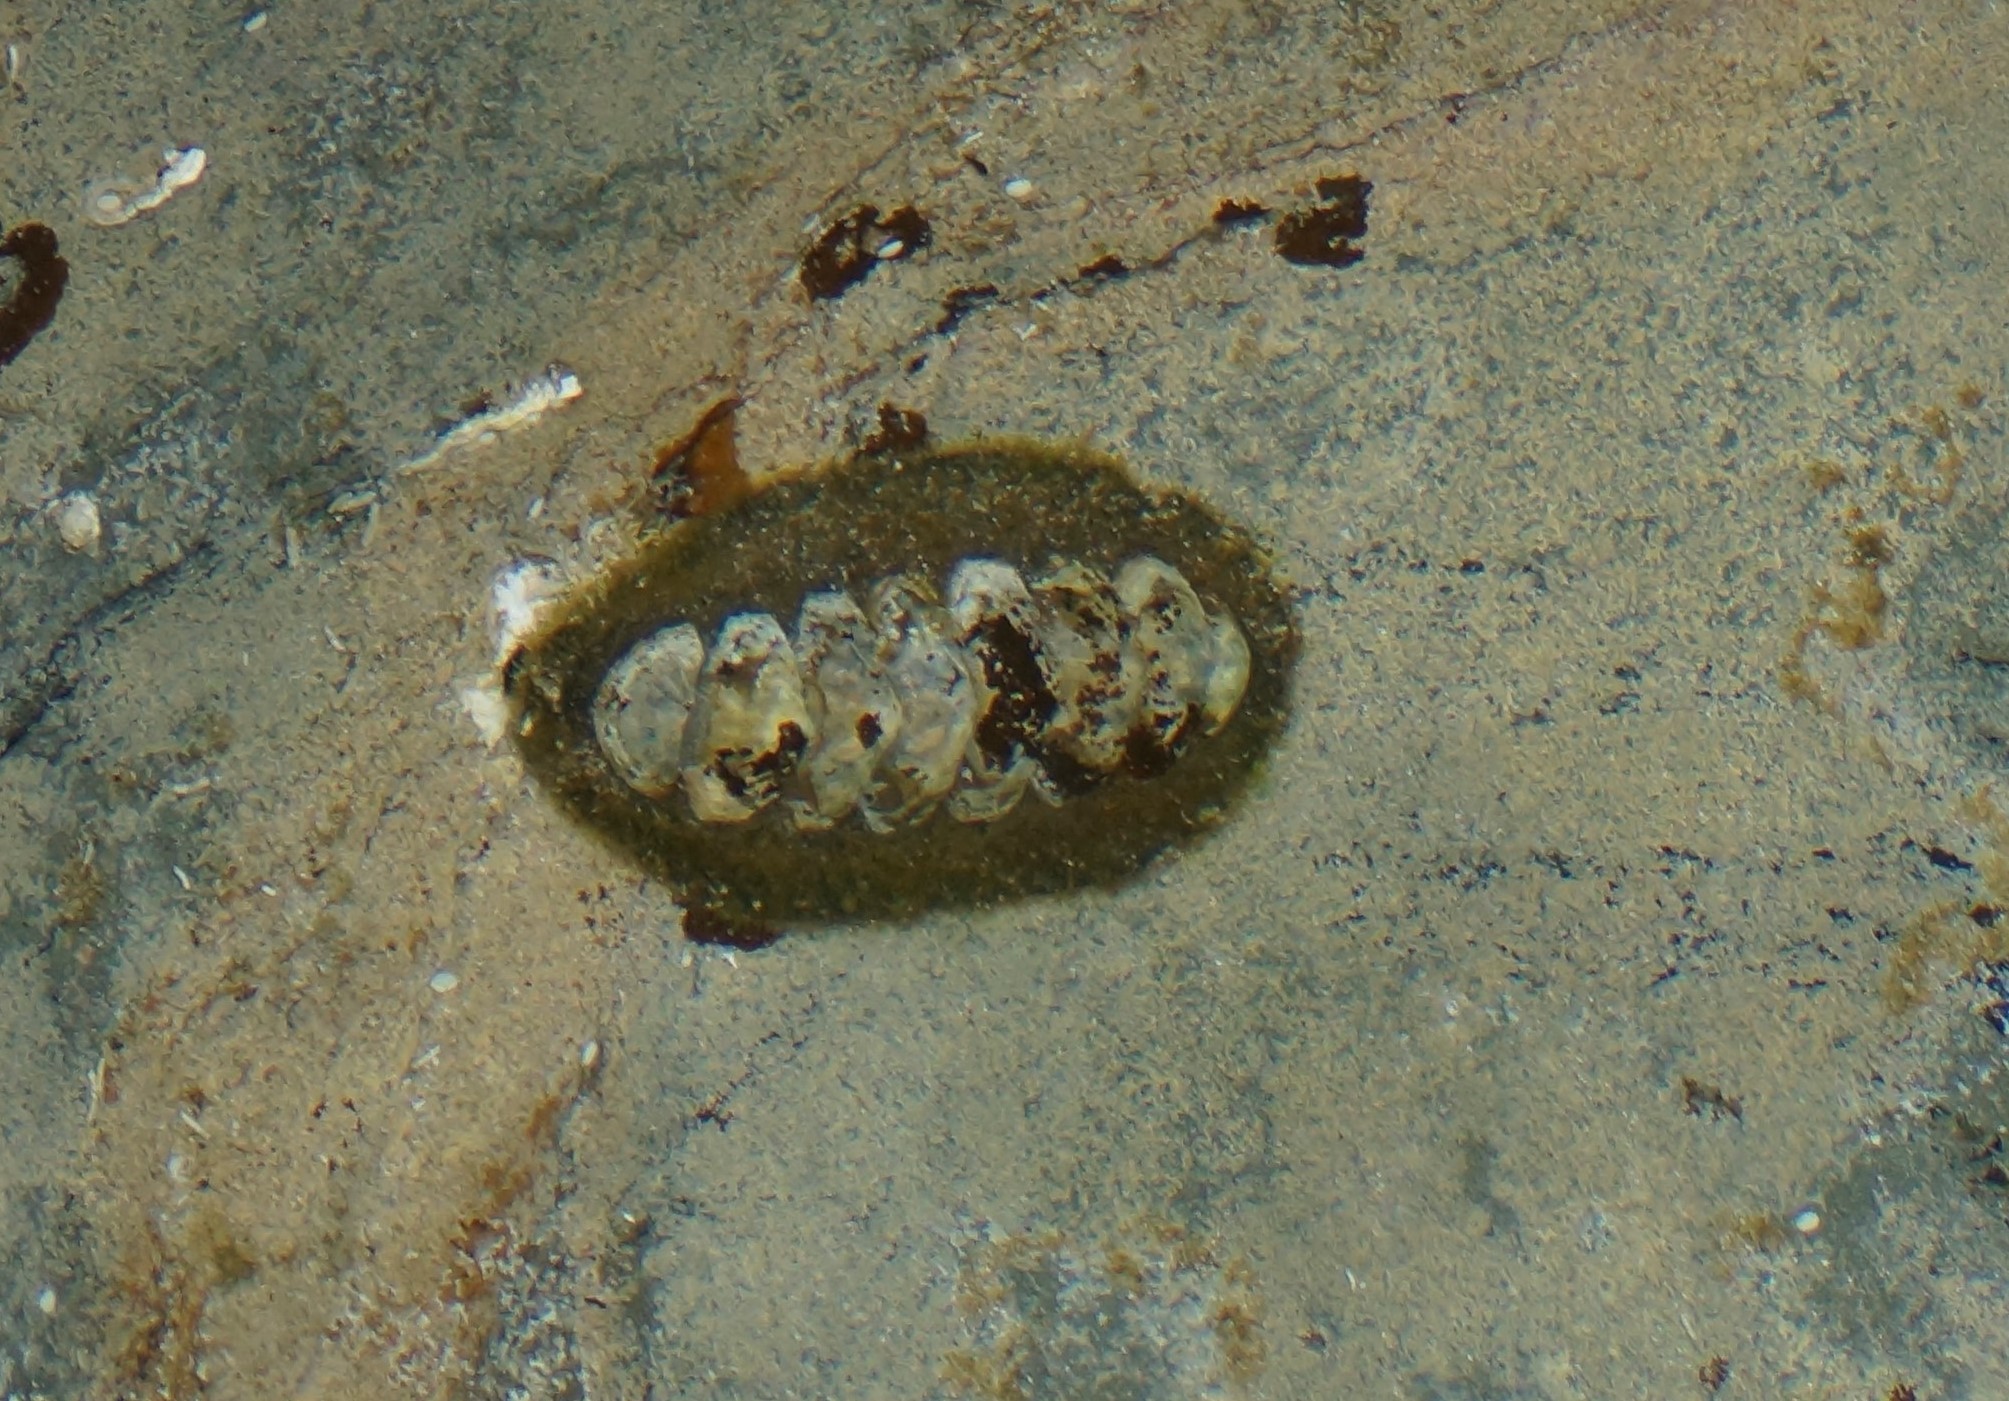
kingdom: Animalia
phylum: Mollusca
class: Polyplacophora
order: Chitonida
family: Mopaliidae
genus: Plaxiphora
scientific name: Plaxiphora albida
